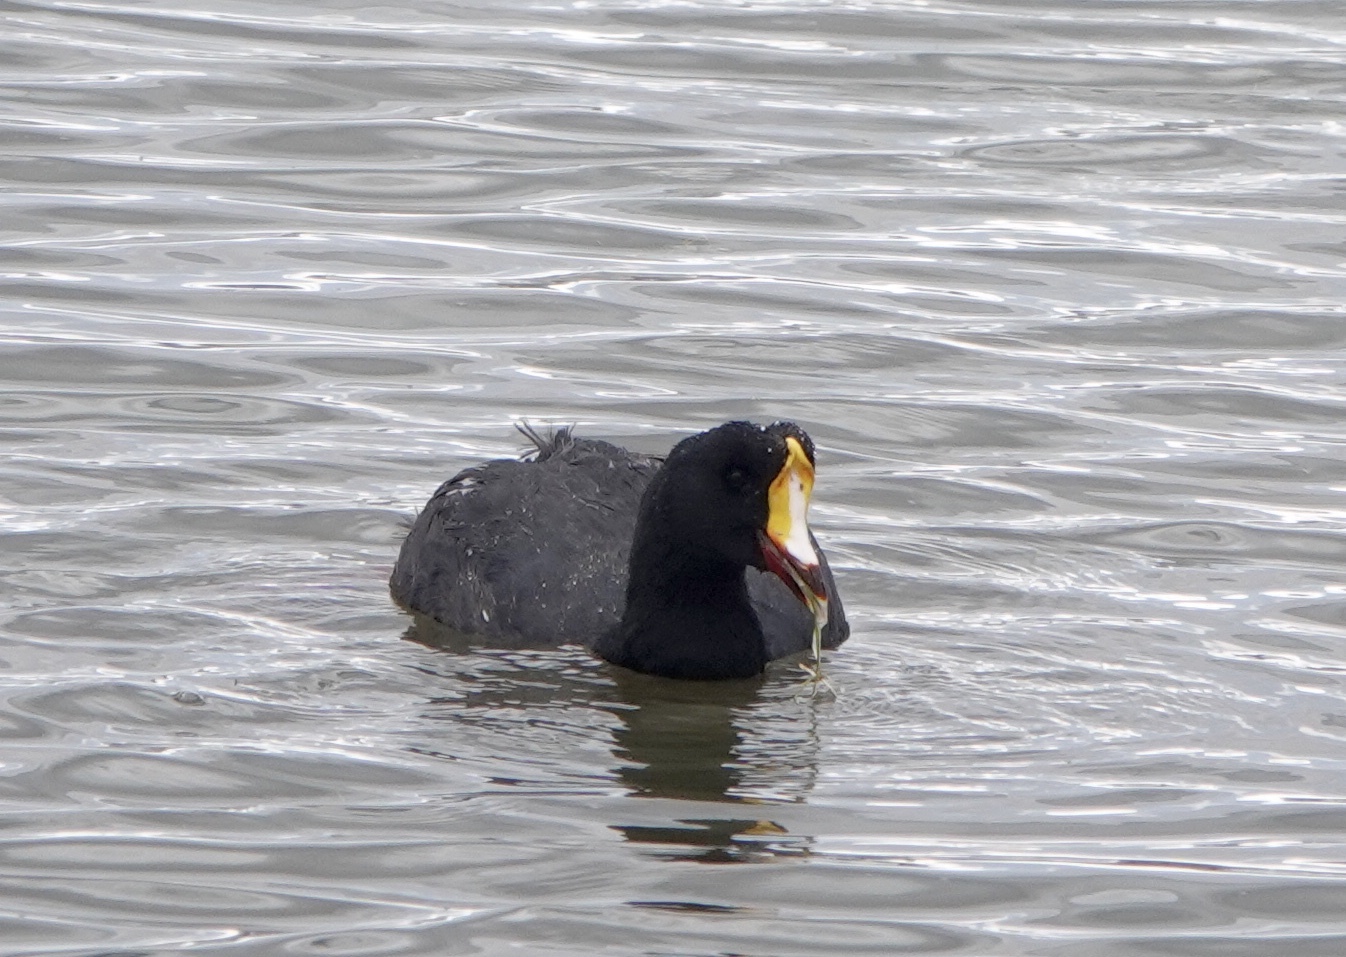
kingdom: Animalia
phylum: Chordata
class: Aves
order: Gruiformes
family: Rallidae
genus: Fulica
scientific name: Fulica gigantea
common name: Giant coot
